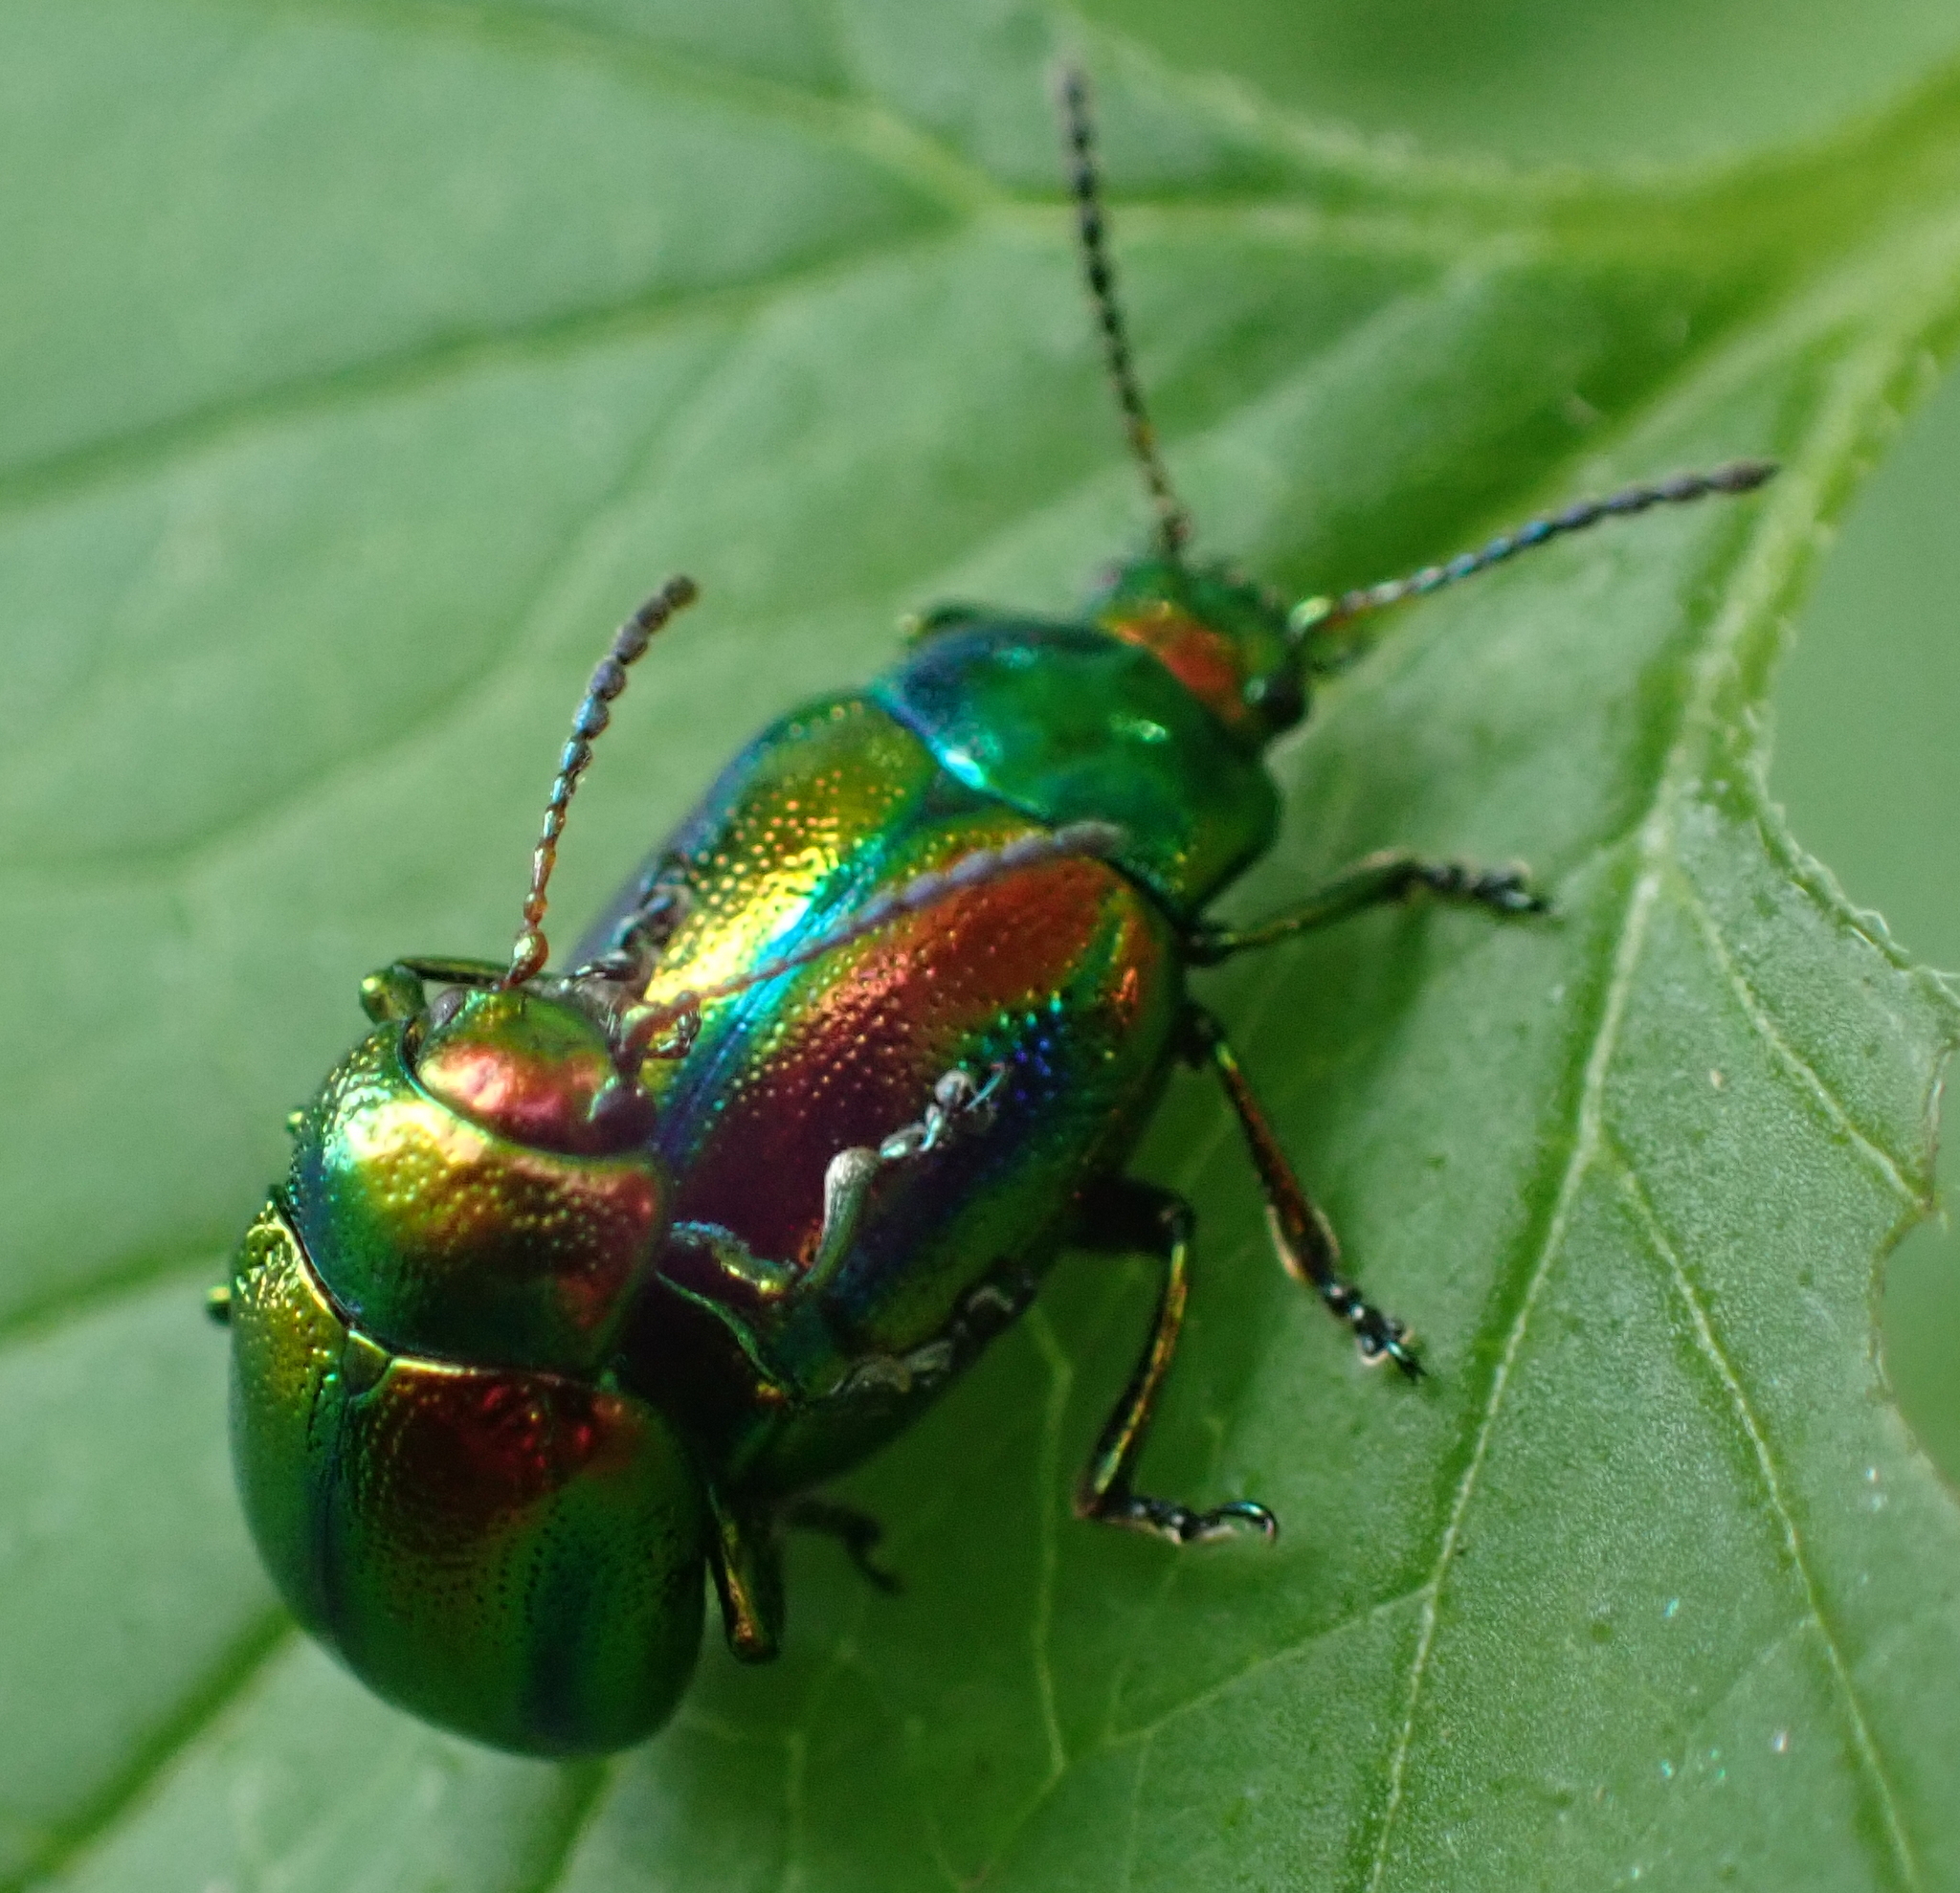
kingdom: Animalia
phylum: Arthropoda
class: Insecta
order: Coleoptera
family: Chrysomelidae
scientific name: Chrysomelidae
